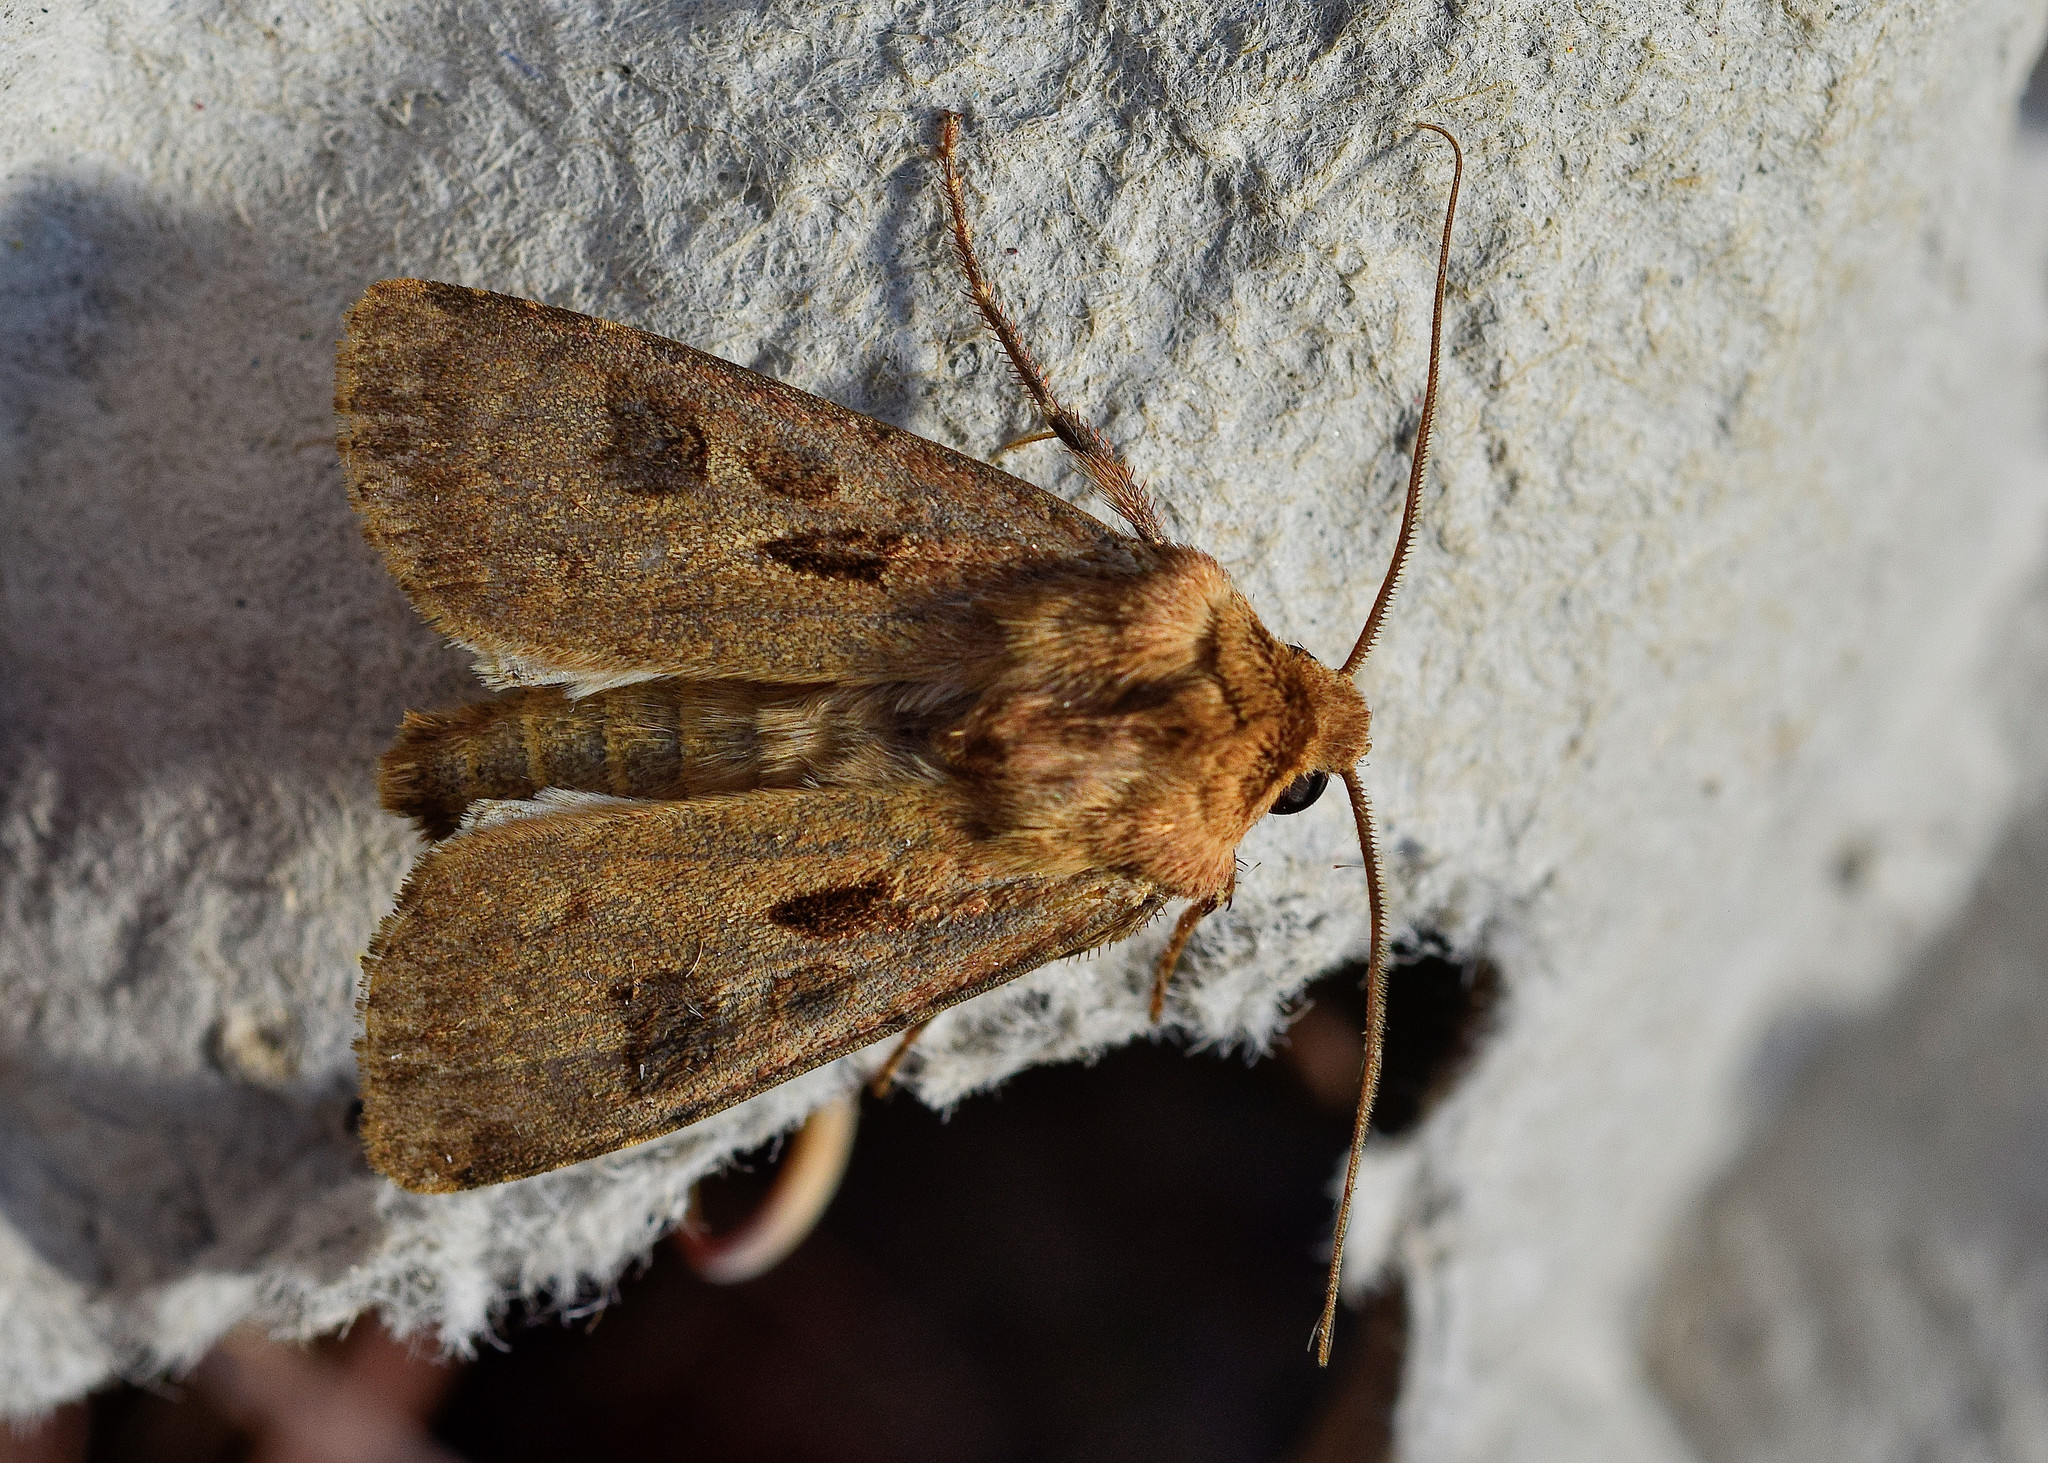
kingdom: Animalia
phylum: Arthropoda
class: Insecta
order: Lepidoptera
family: Noctuidae
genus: Agrotis
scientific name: Agrotis exclamationis
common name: Heart and dart
